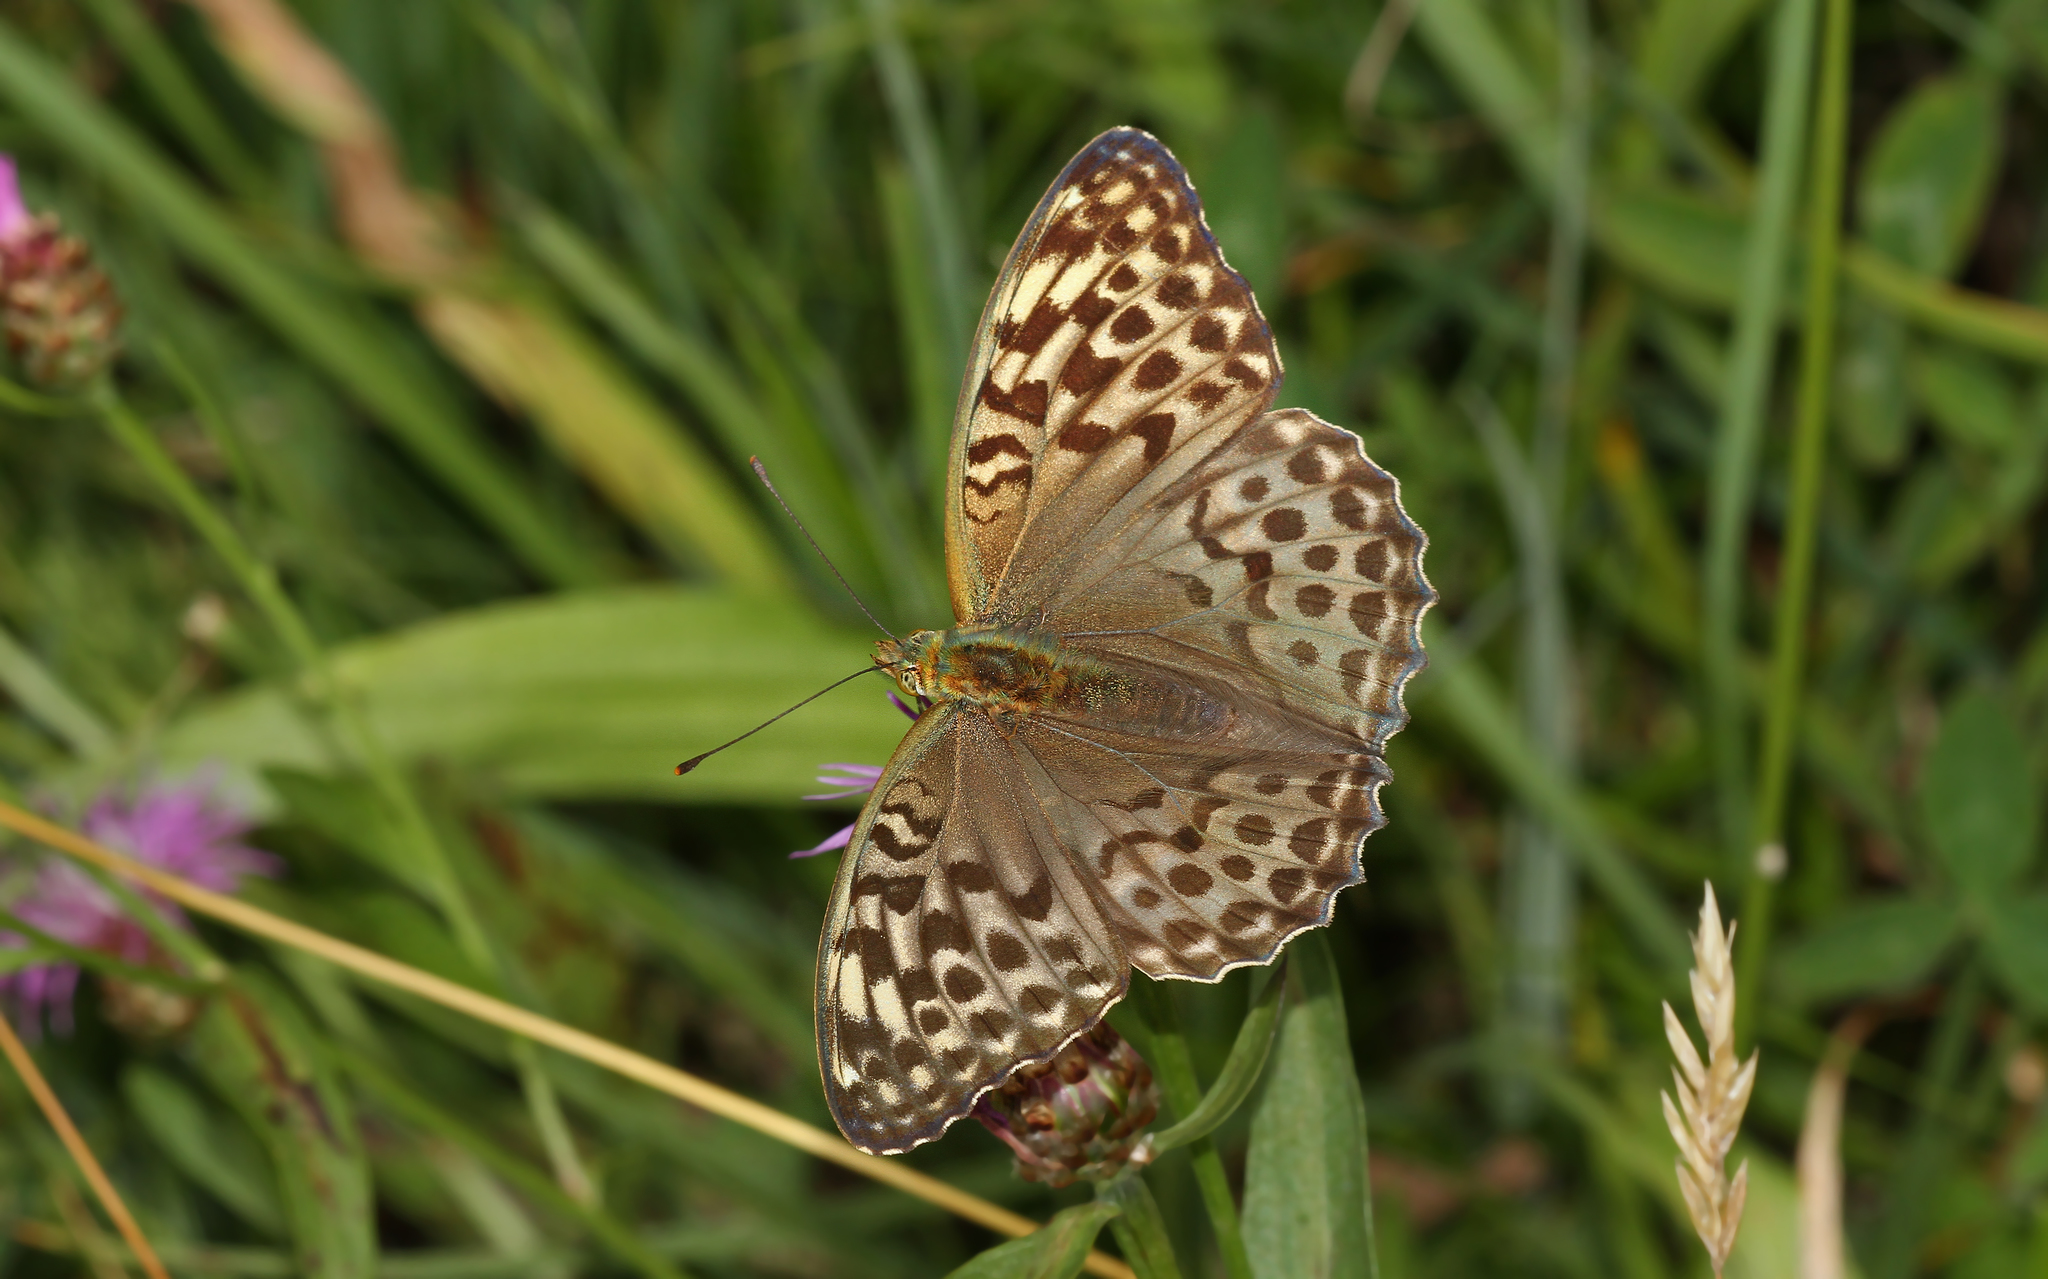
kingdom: Animalia
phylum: Arthropoda
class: Insecta
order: Lepidoptera
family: Nymphalidae
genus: Argynnis
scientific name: Argynnis paphia
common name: Silver-washed fritillary
